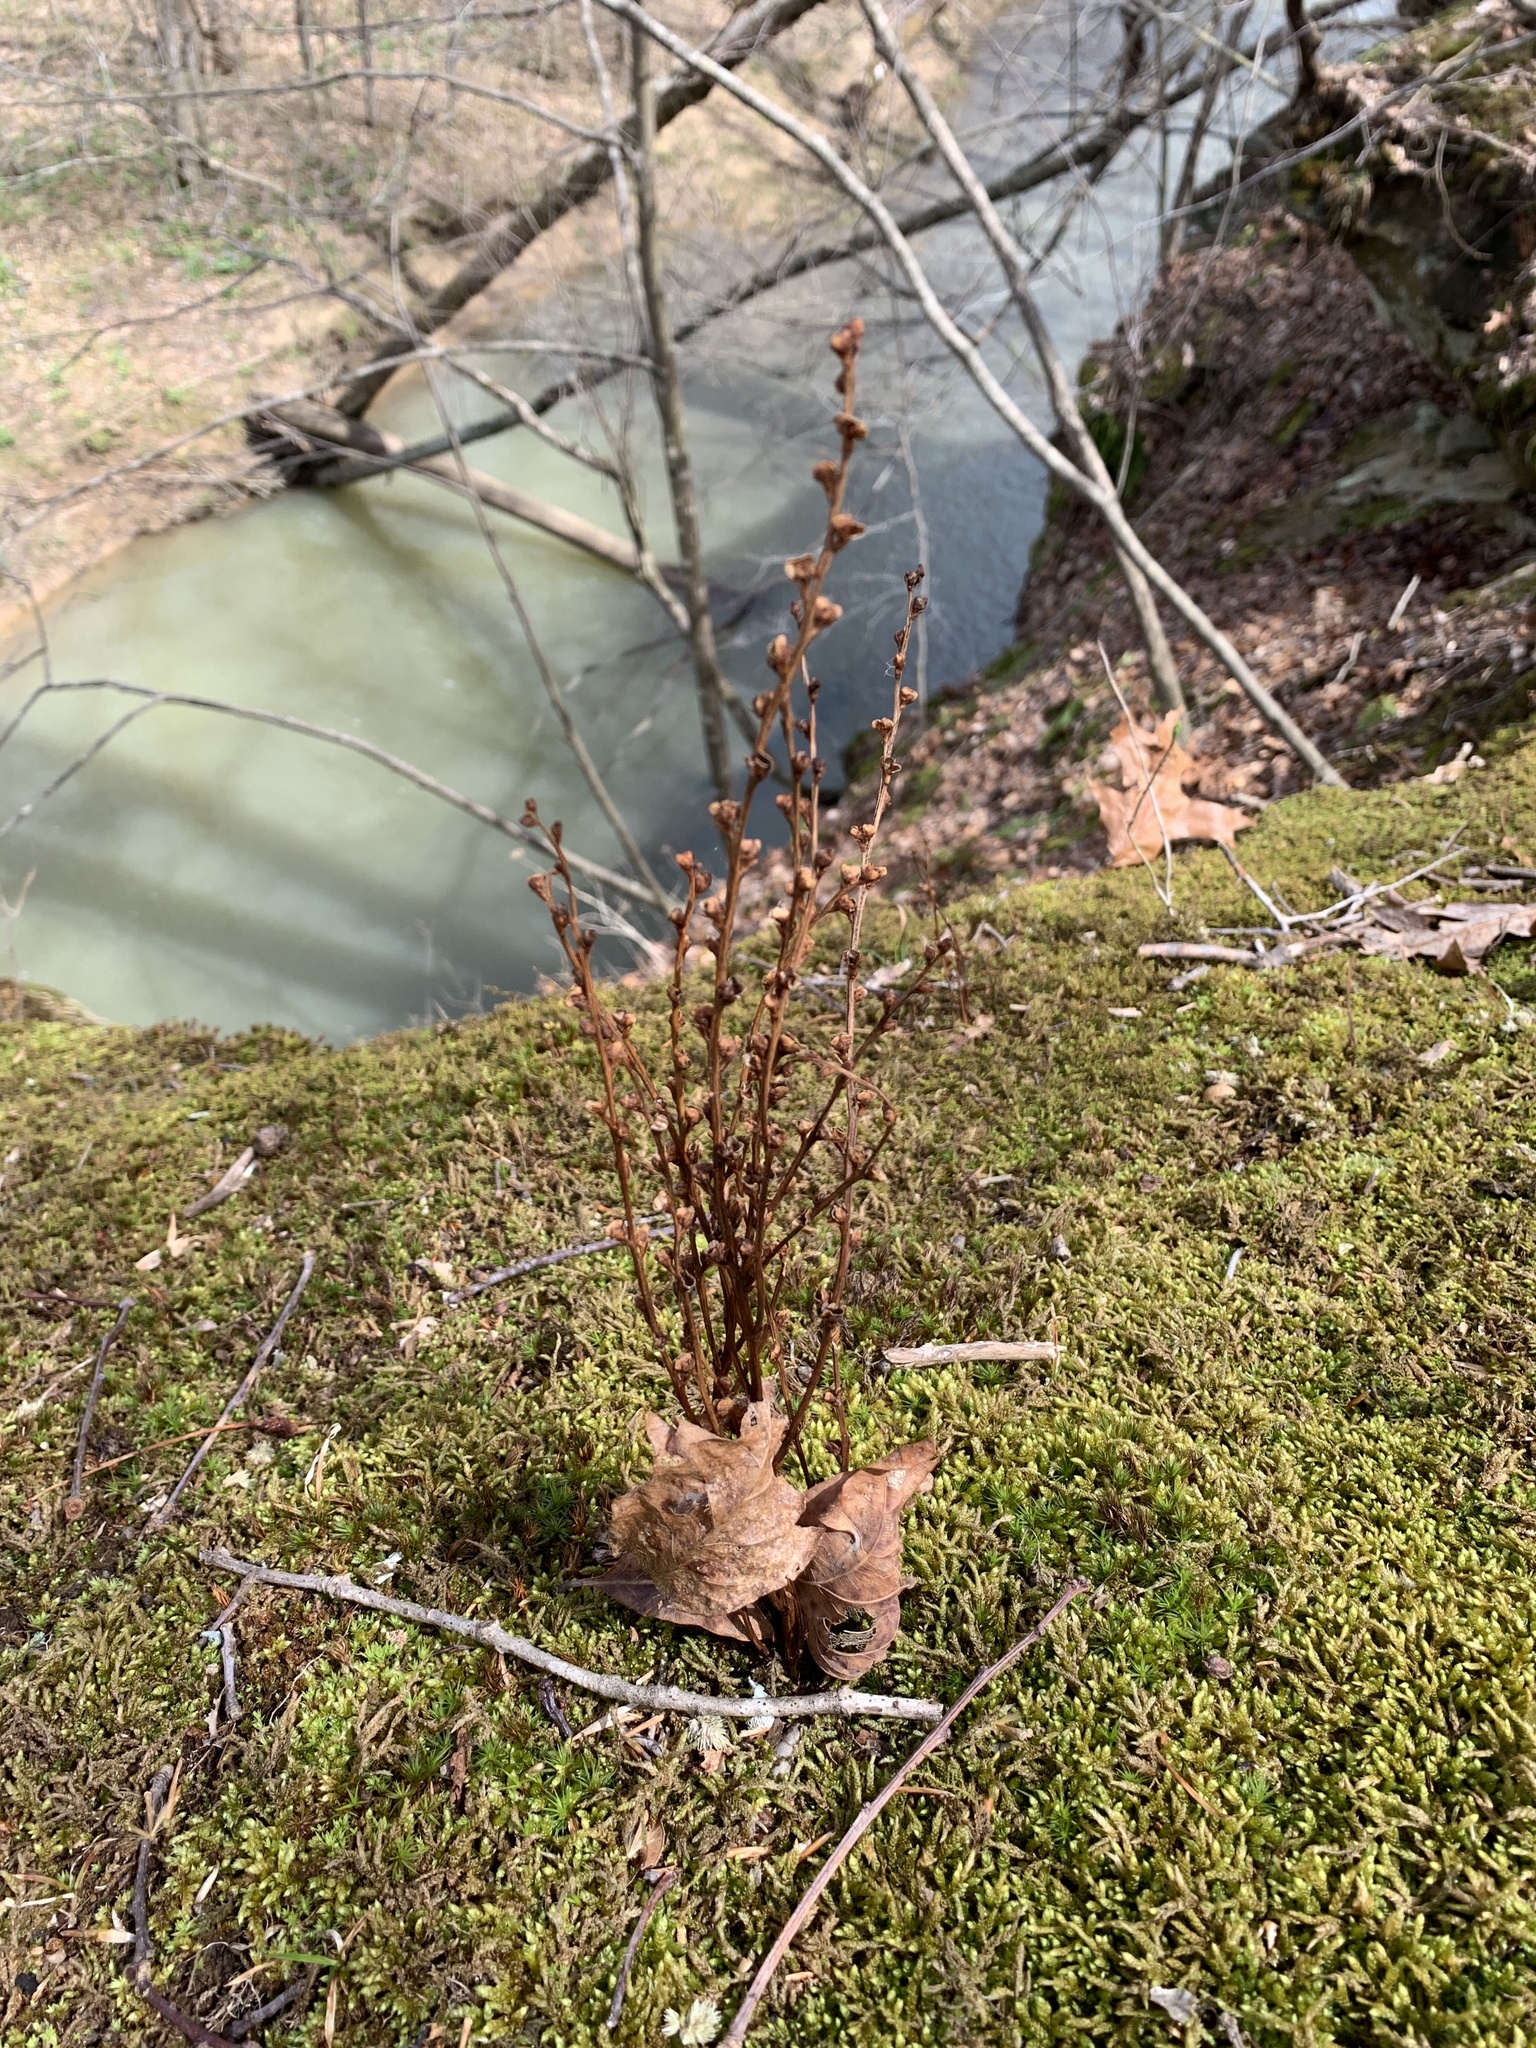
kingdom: Plantae
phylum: Tracheophyta
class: Magnoliopsida
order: Lamiales
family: Orobanchaceae
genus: Epifagus
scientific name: Epifagus virginiana
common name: Beechdrops
